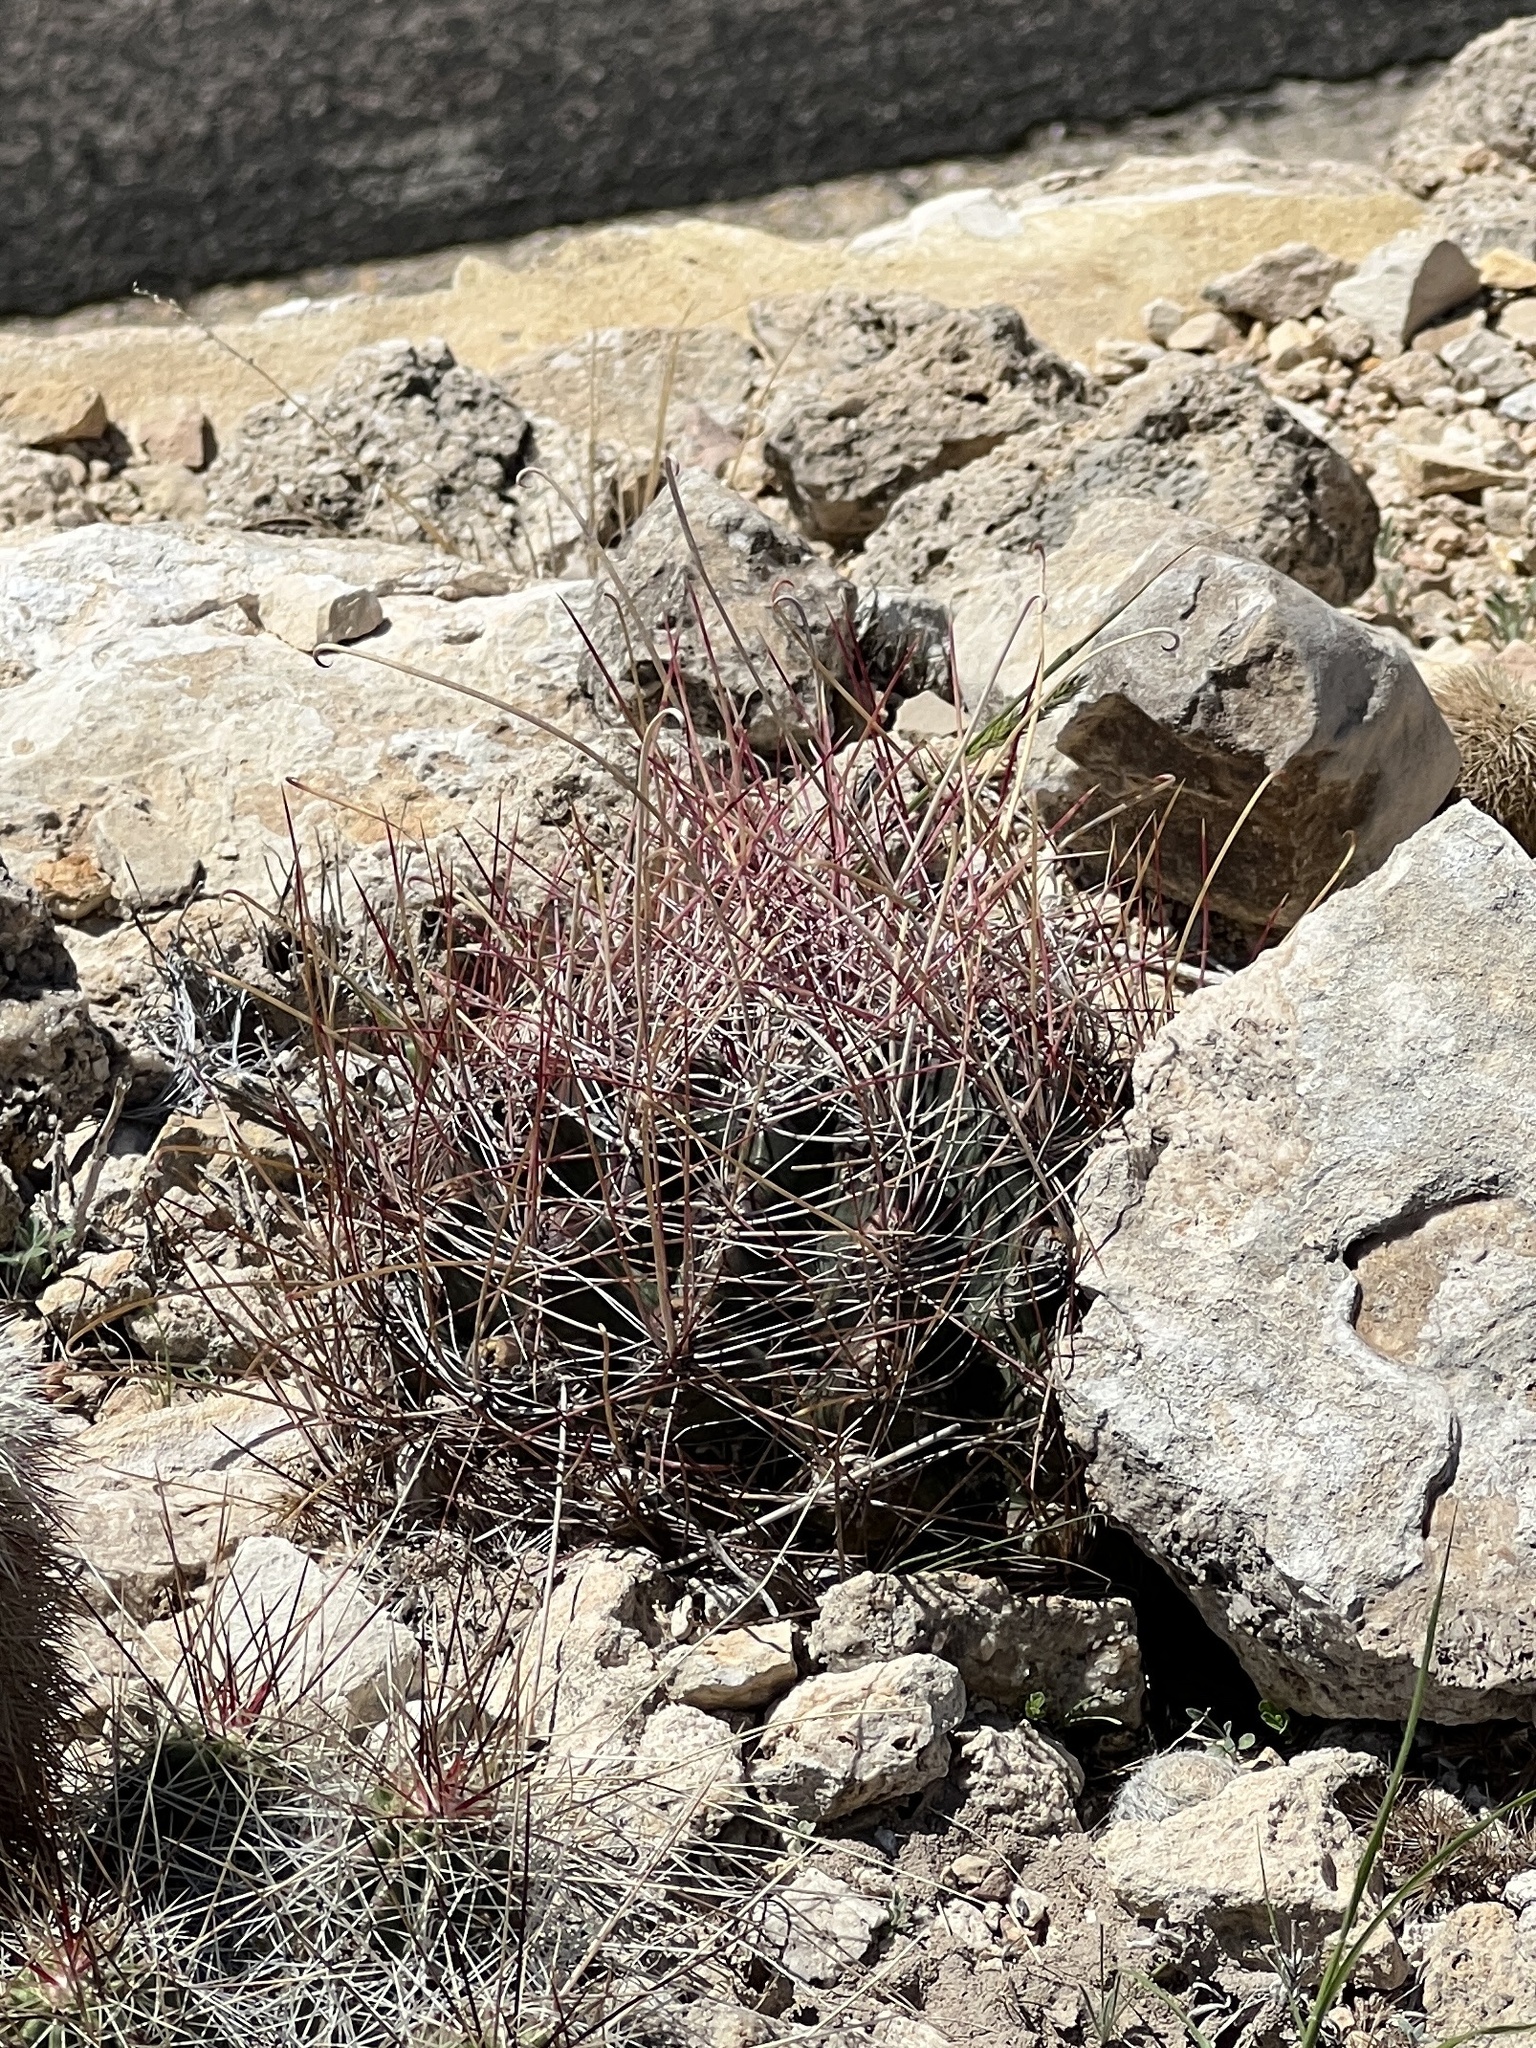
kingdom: Plantae
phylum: Tracheophyta
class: Magnoliopsida
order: Caryophyllales
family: Cactaceae
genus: Bisnaga
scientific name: Bisnaga hamatacantha
